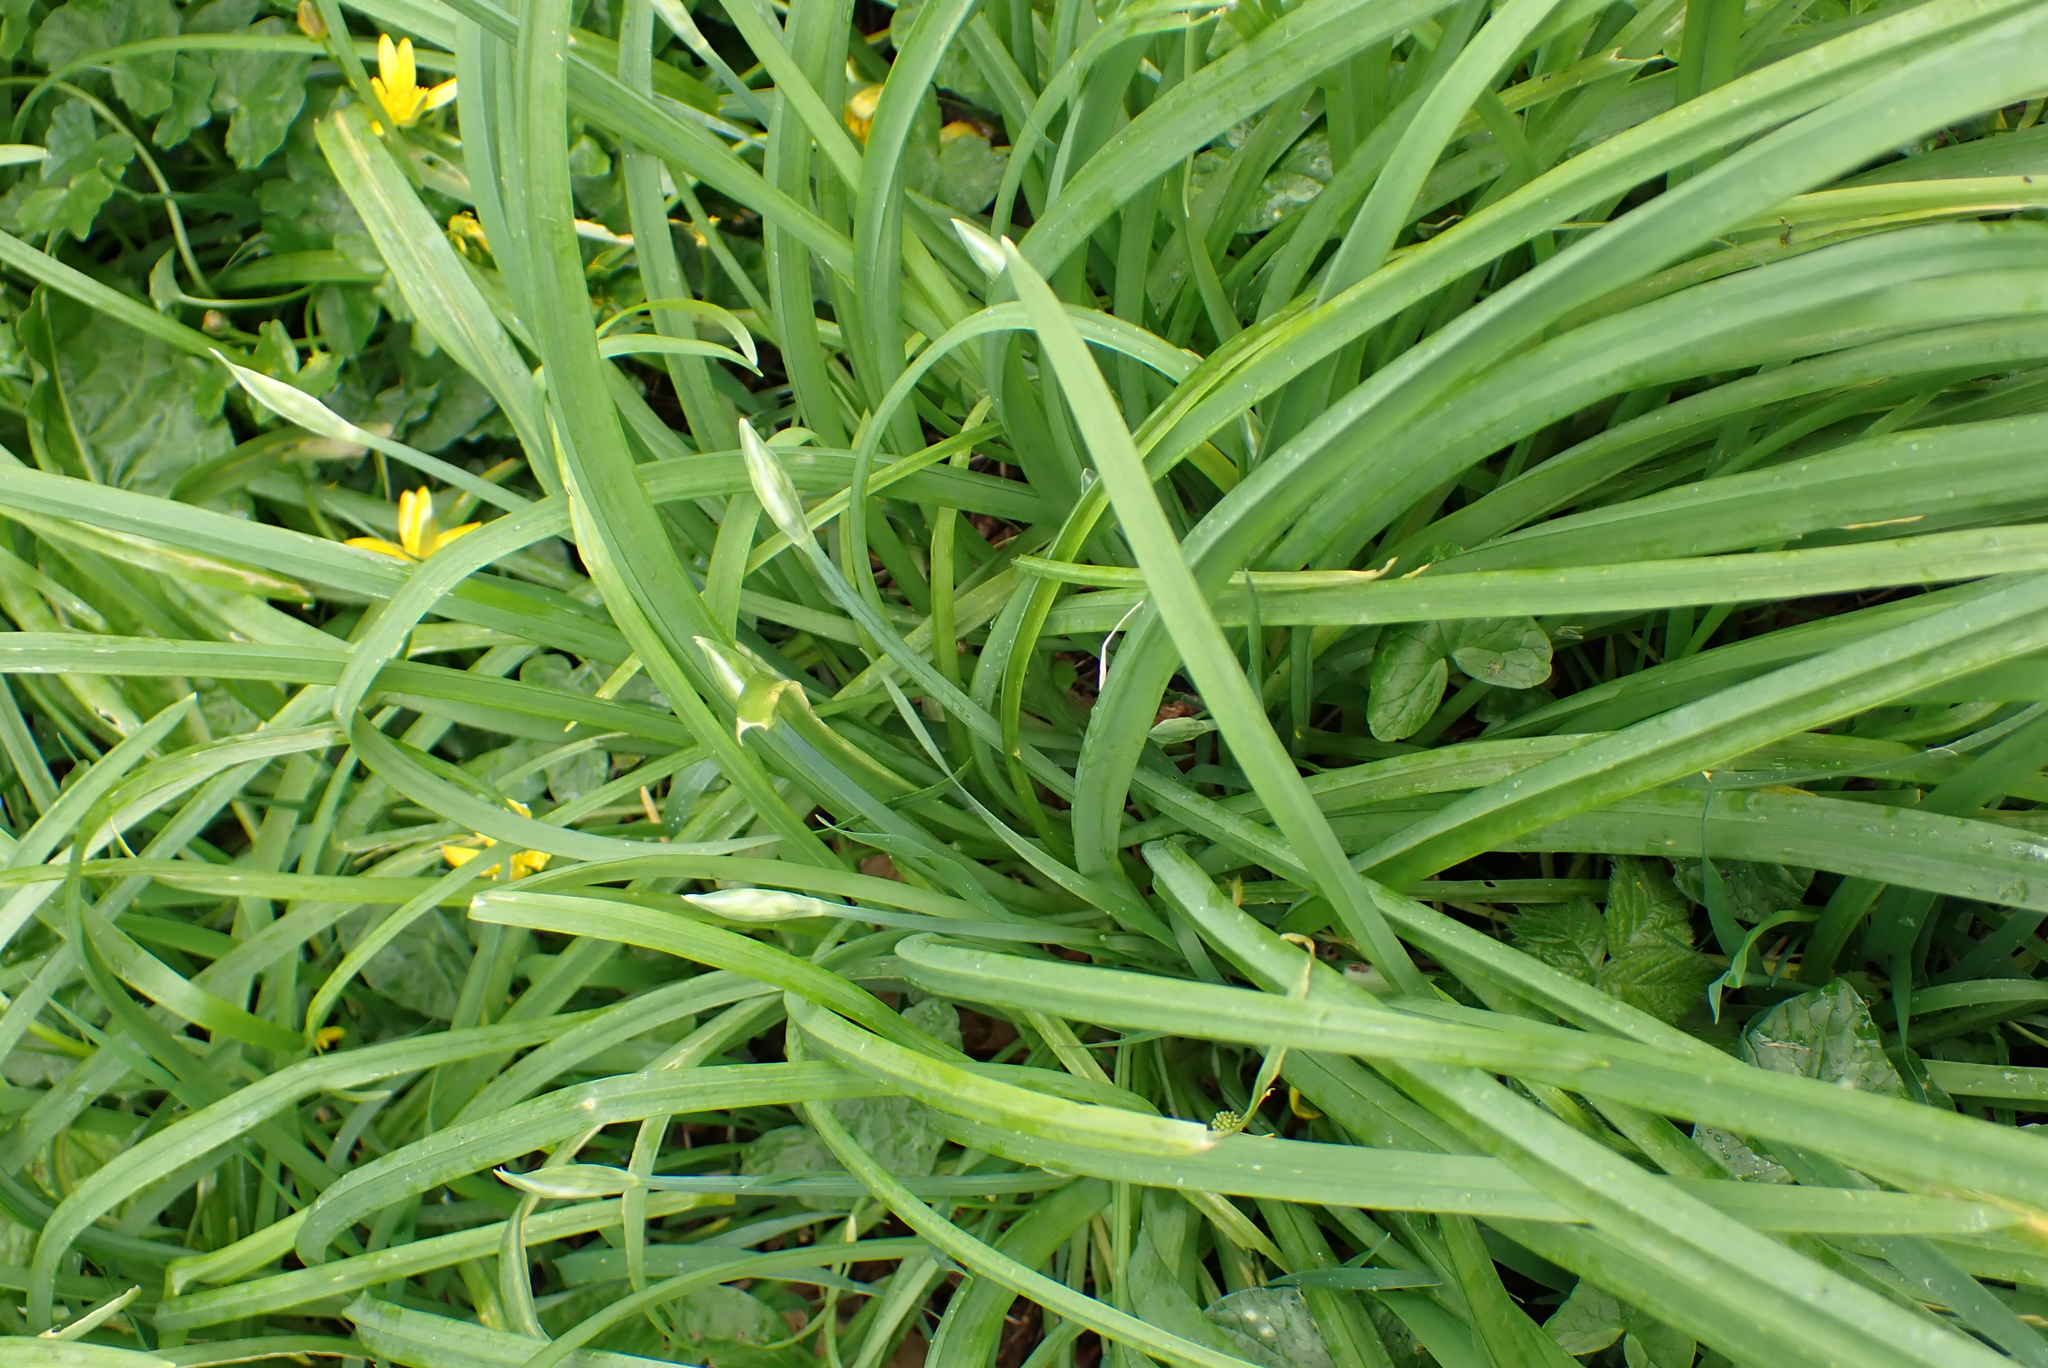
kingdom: Plantae
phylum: Tracheophyta
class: Liliopsida
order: Asparagales
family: Amaryllidaceae
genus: Allium
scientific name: Allium triquetrum
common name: Three-cornered garlic
